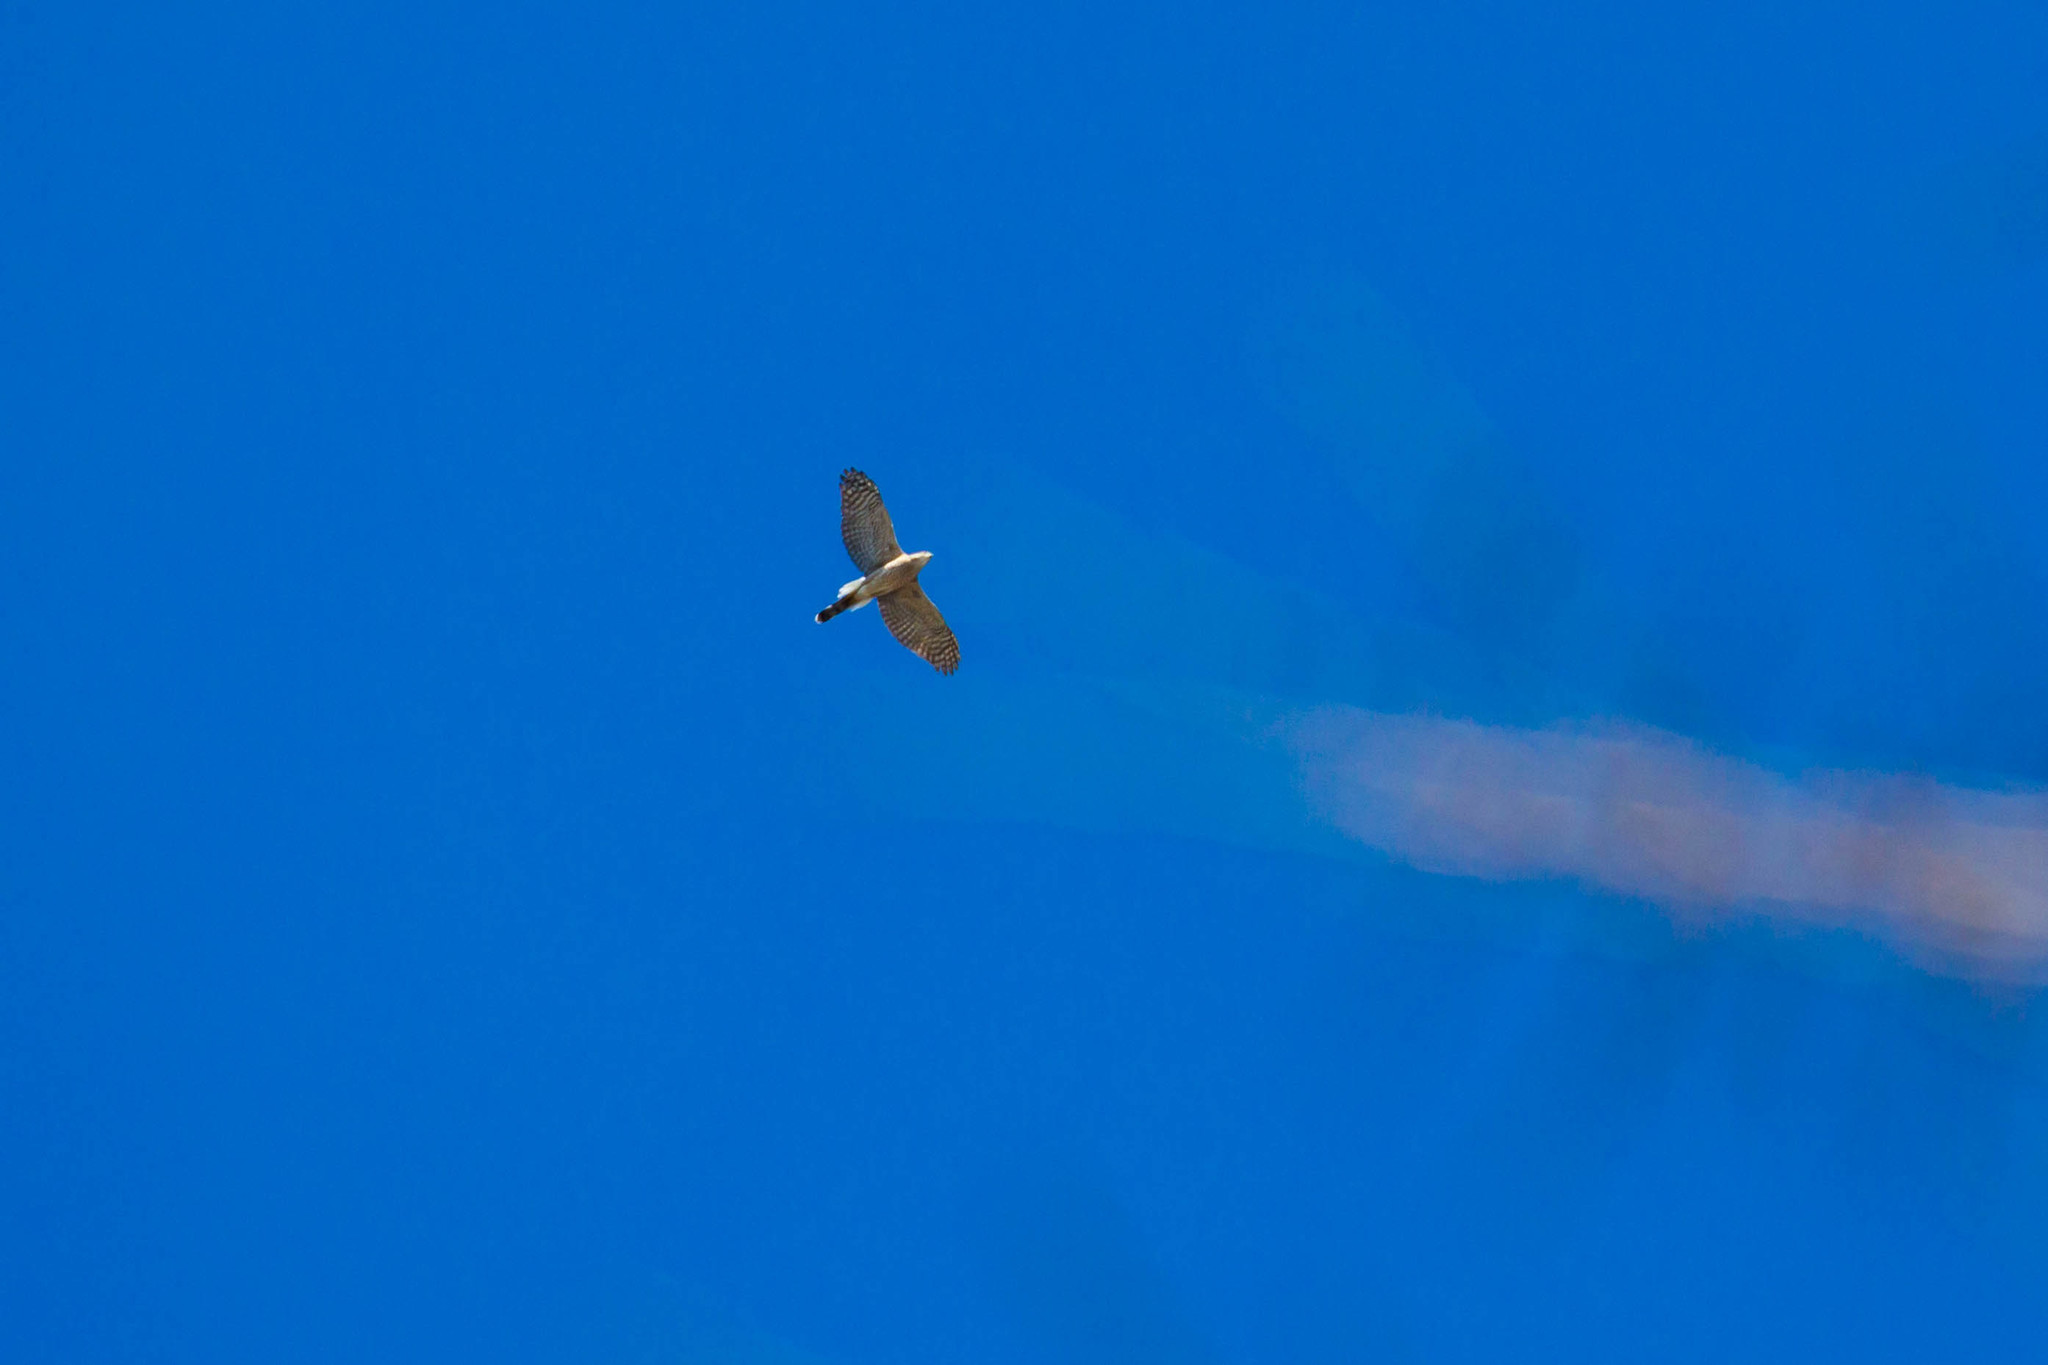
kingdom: Animalia
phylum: Chordata
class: Aves
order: Accipitriformes
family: Accipitridae
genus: Accipiter
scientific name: Accipiter cooperii
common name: Cooper's hawk
